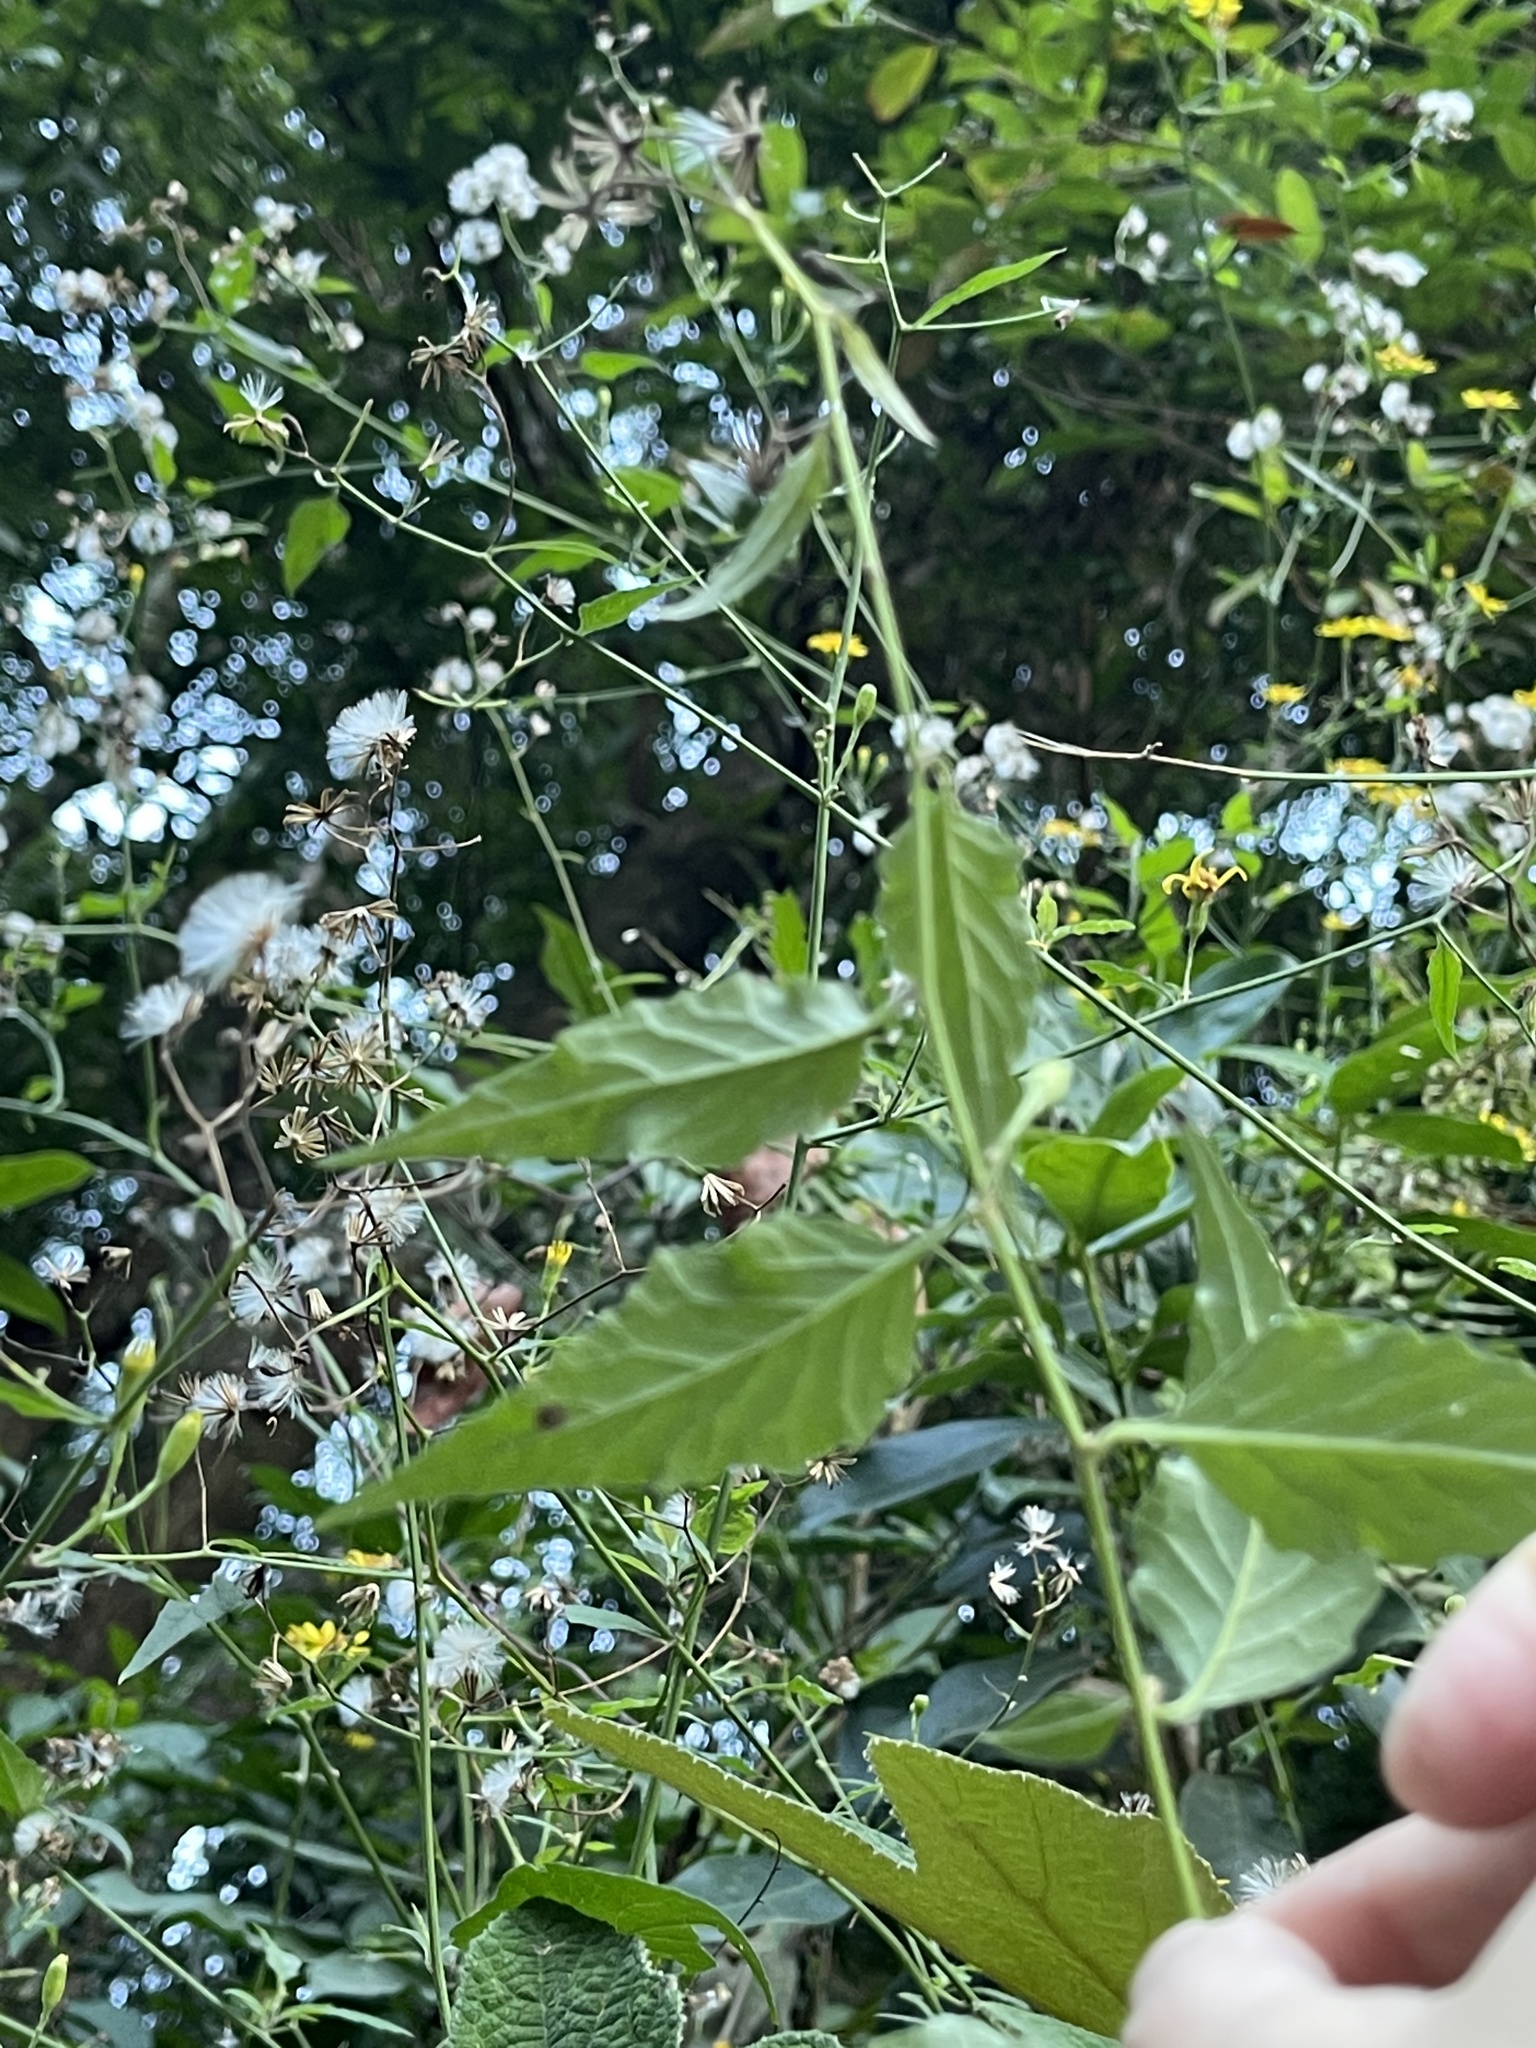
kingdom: Plantae
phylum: Tracheophyta
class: Magnoliopsida
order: Asterales
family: Asteraceae
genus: Senecio
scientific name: Senecio scandens
